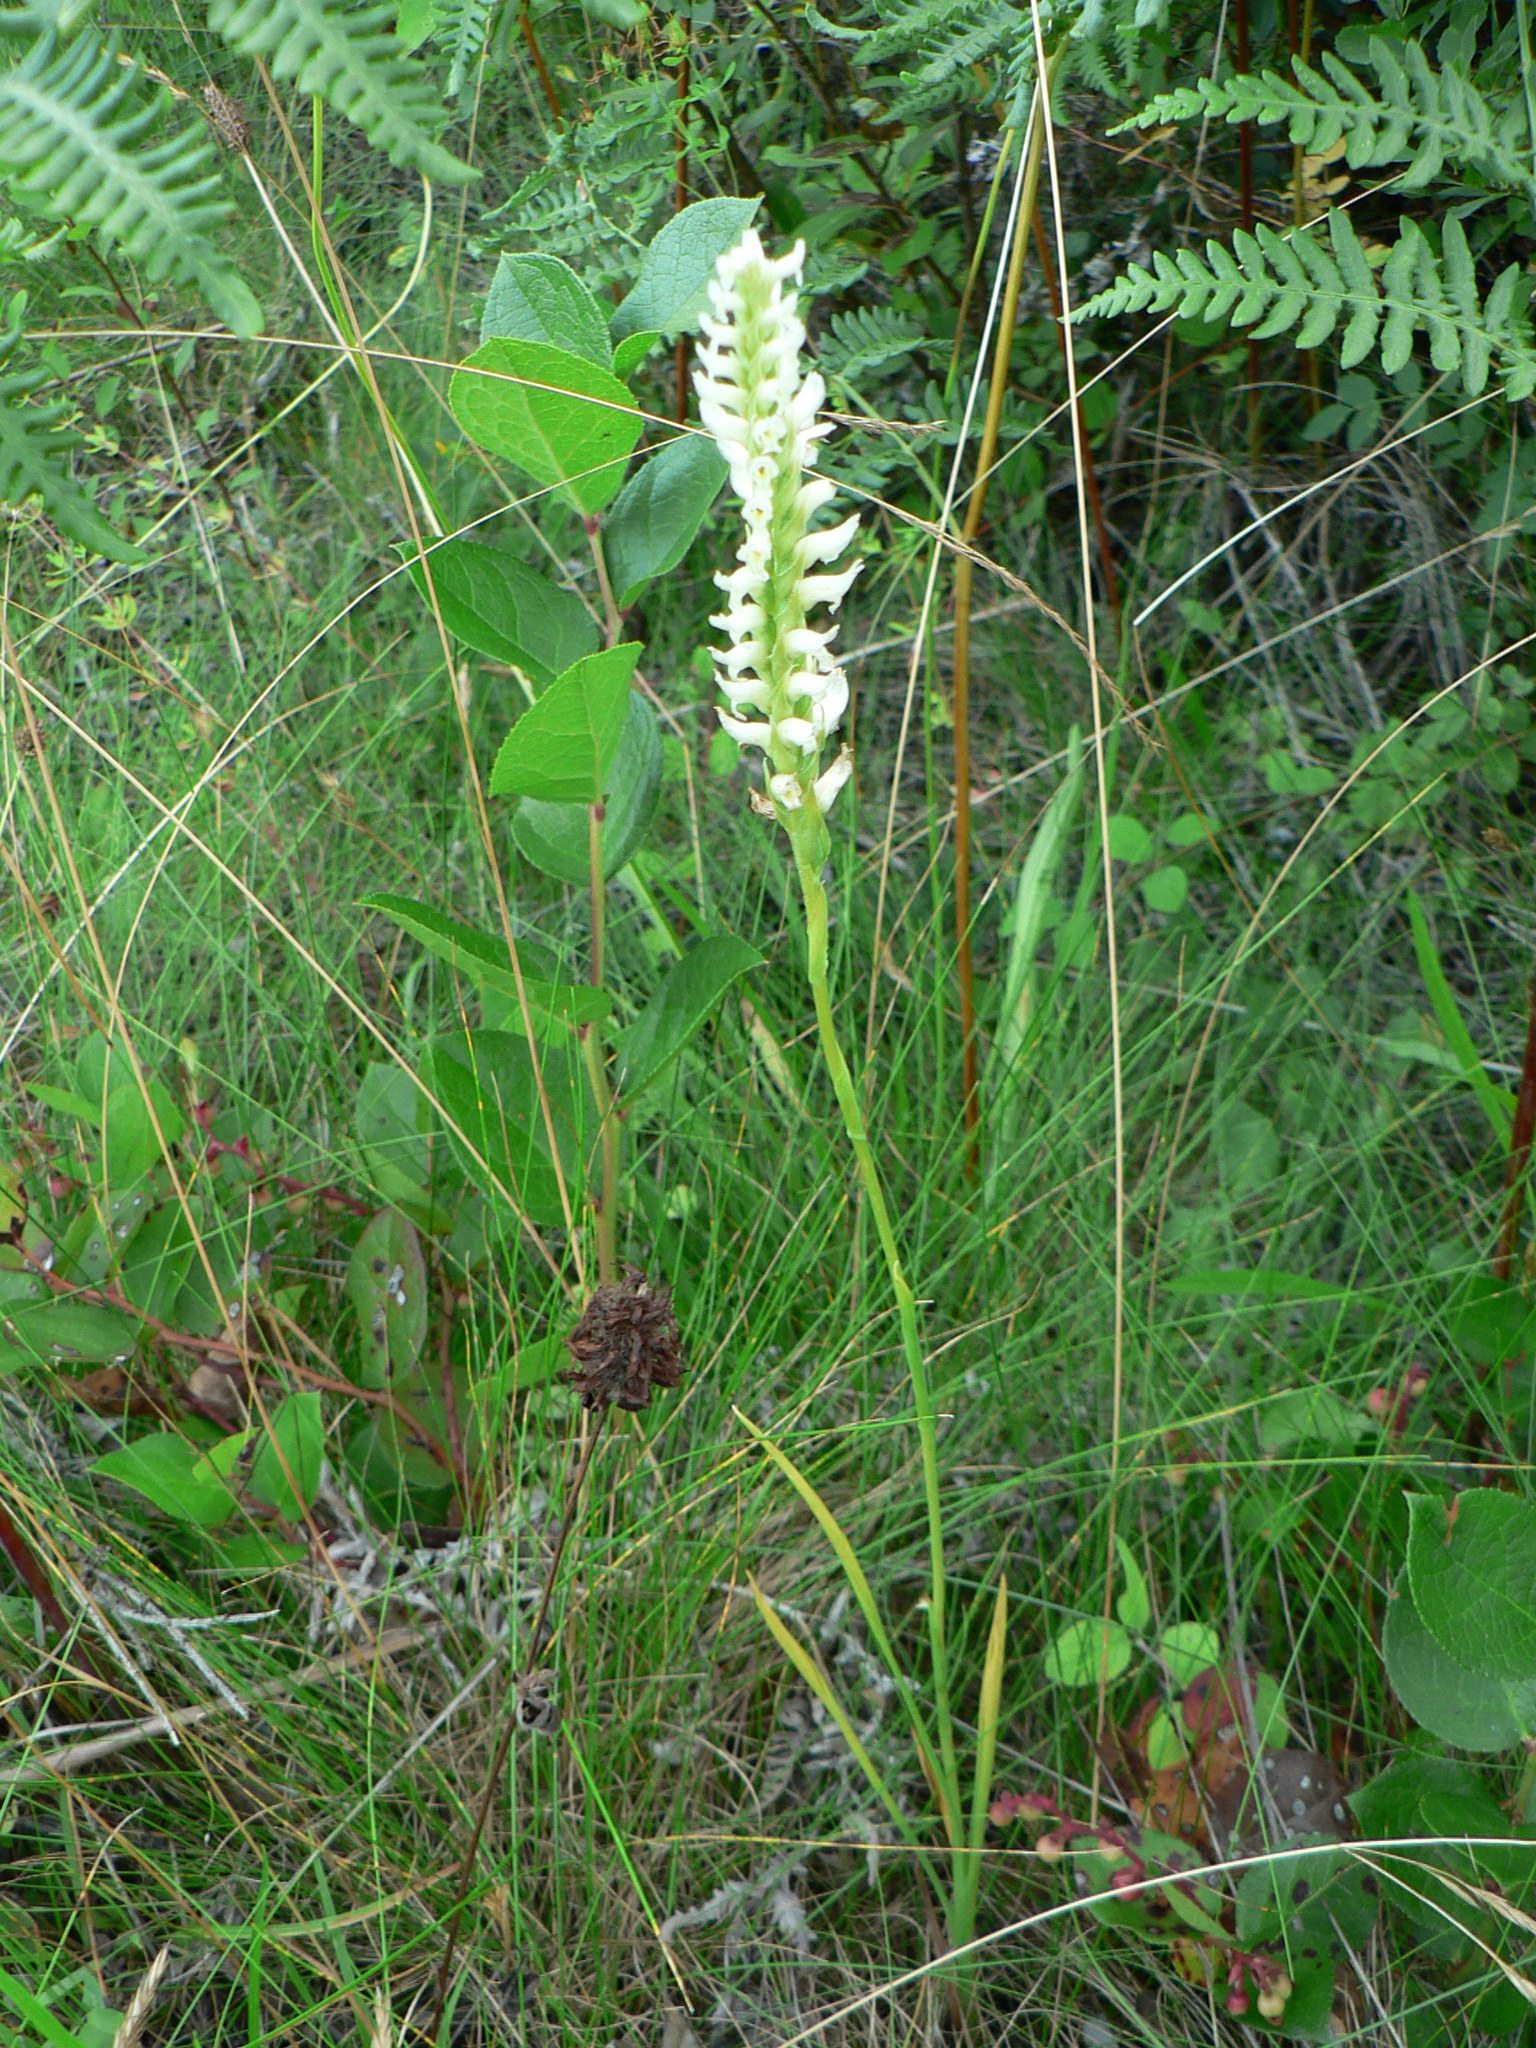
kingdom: Plantae
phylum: Tracheophyta
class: Liliopsida
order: Asparagales
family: Orchidaceae
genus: Spiranthes
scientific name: Spiranthes romanzoffiana
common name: Irish lady's-tresses
